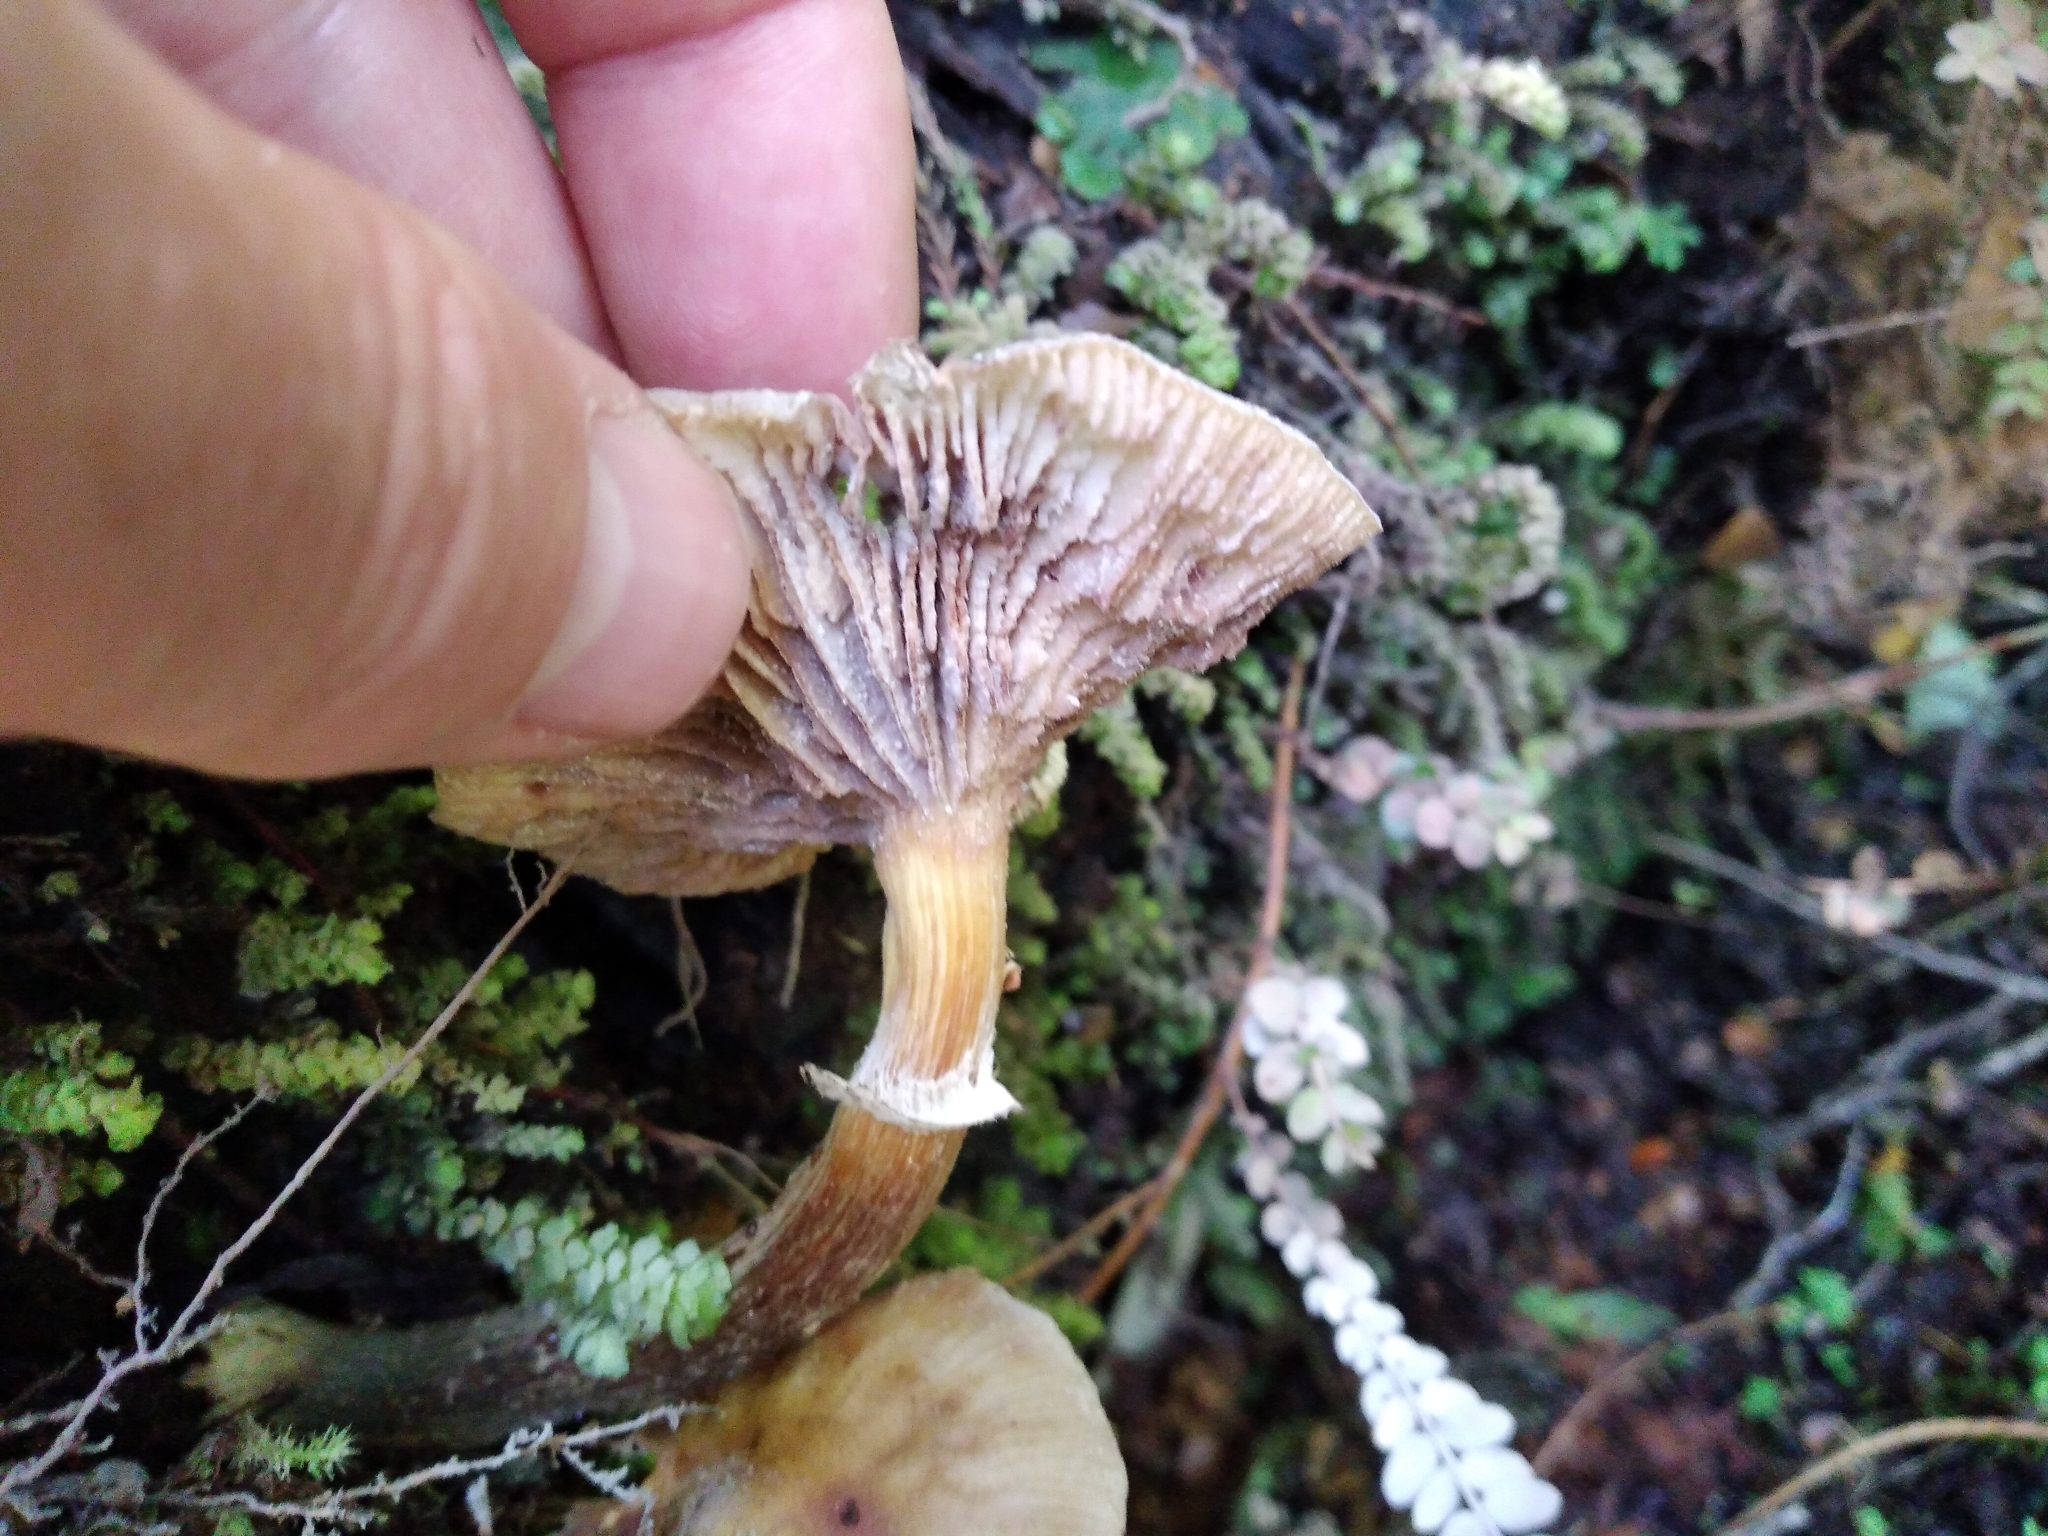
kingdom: Fungi
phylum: Basidiomycota
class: Agaricomycetes
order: Agaricales
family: Physalacriaceae
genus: Armillaria
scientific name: Armillaria novae-zelandiae
